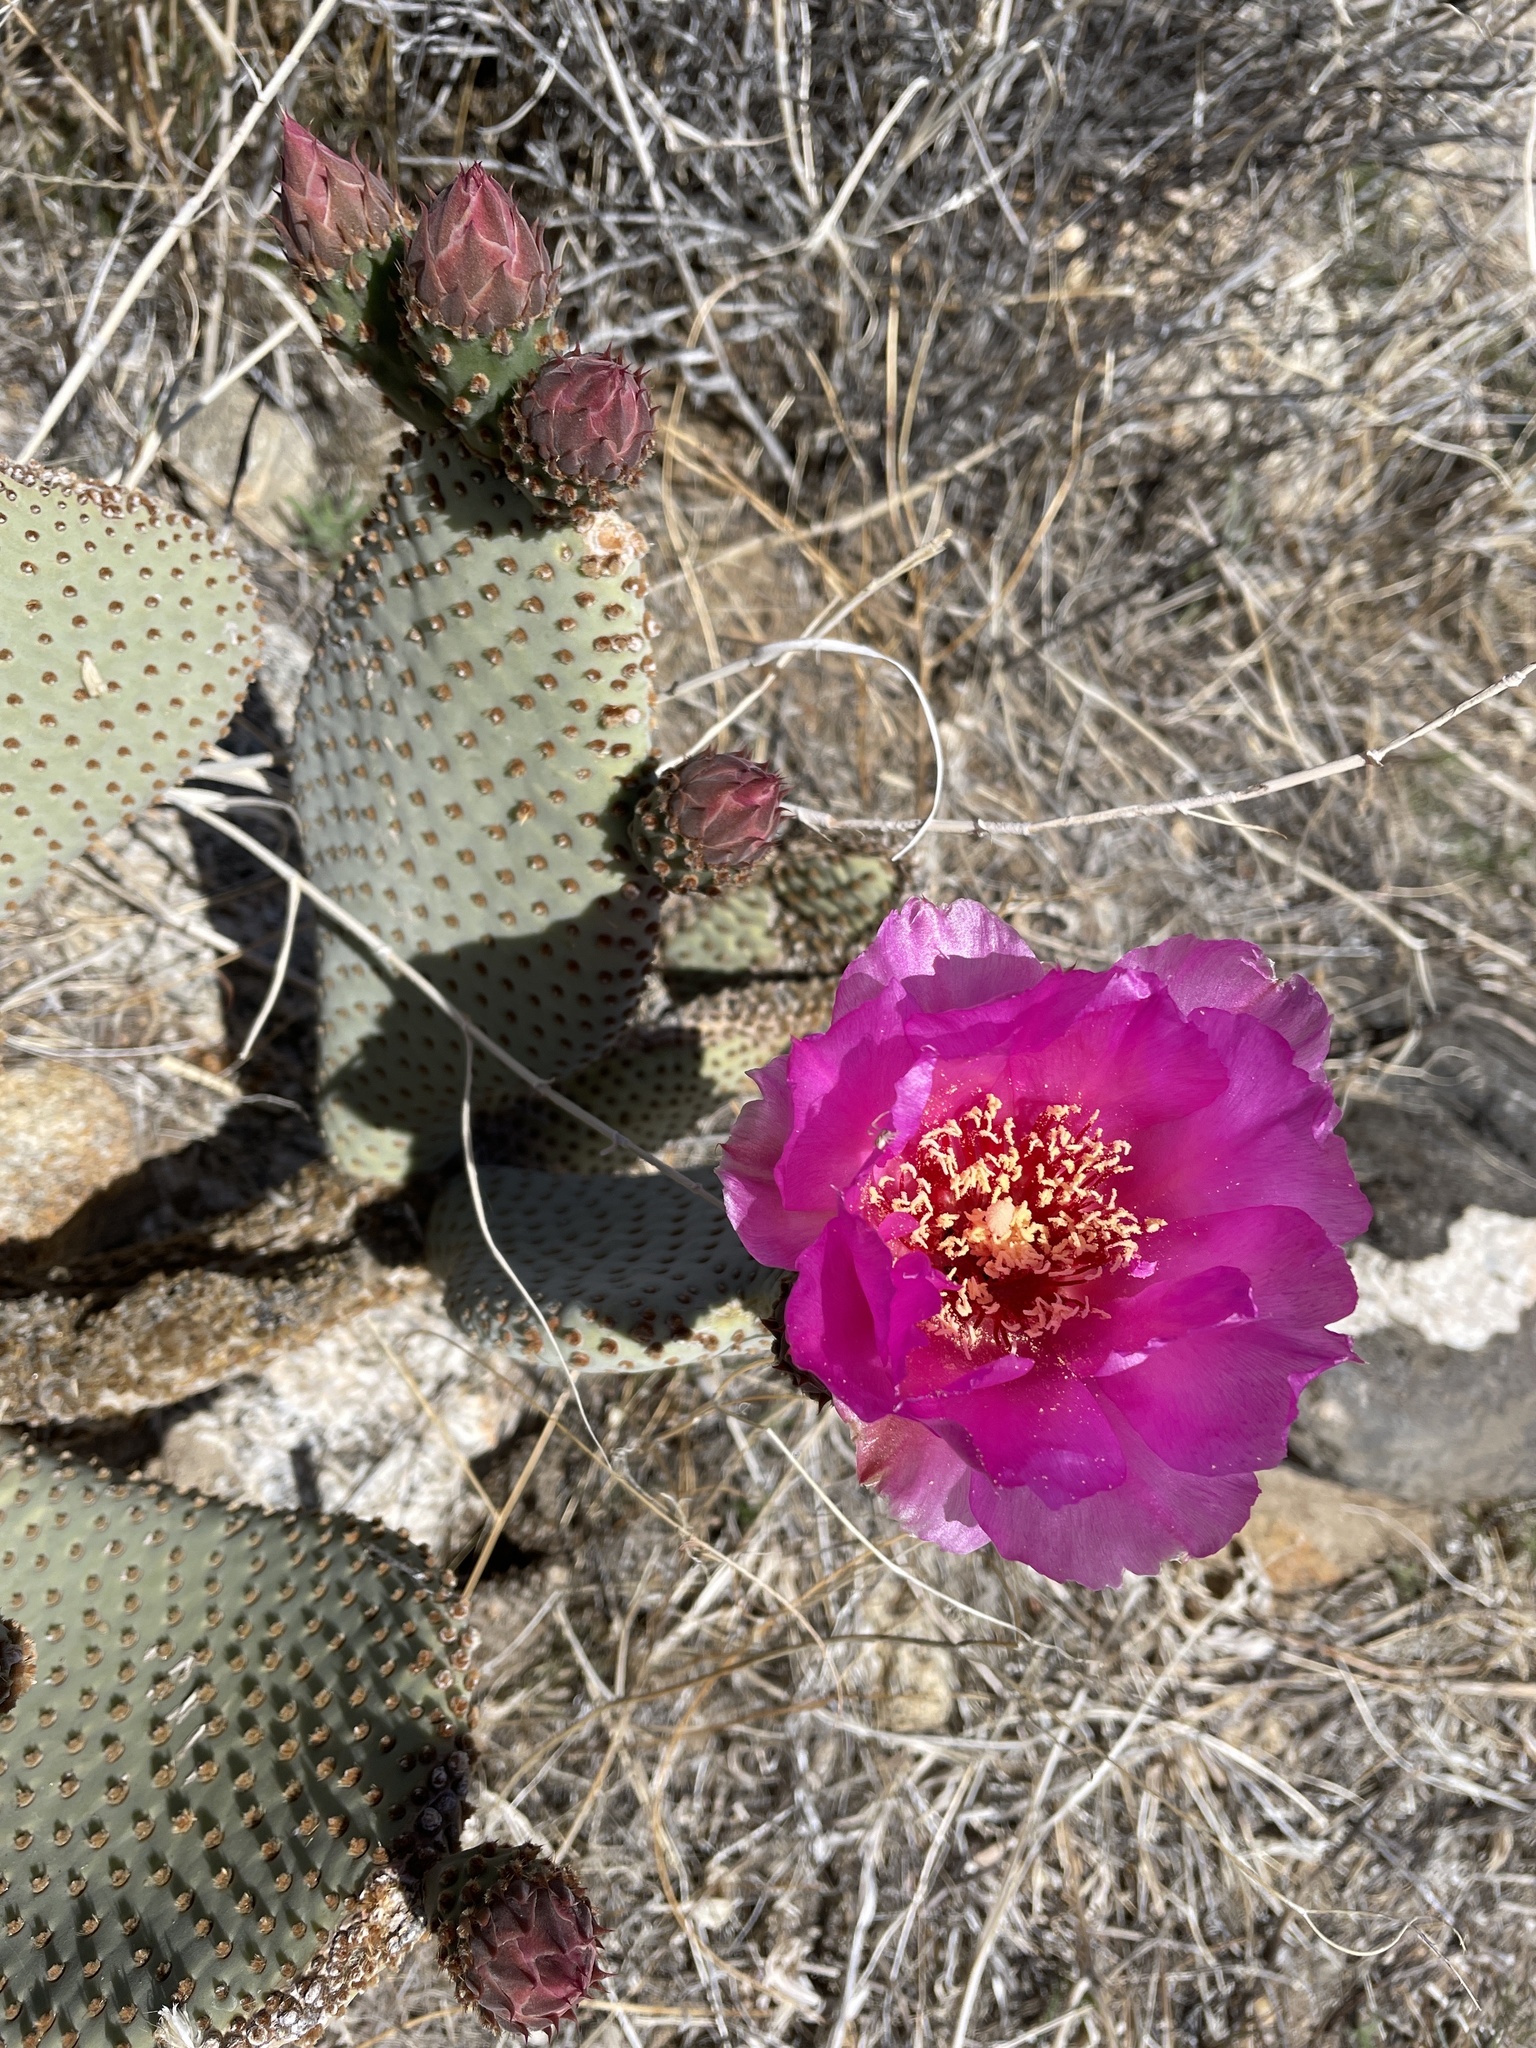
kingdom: Plantae
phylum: Tracheophyta
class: Magnoliopsida
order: Caryophyllales
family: Cactaceae
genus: Opuntia
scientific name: Opuntia basilaris
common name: Beavertail prickly-pear
